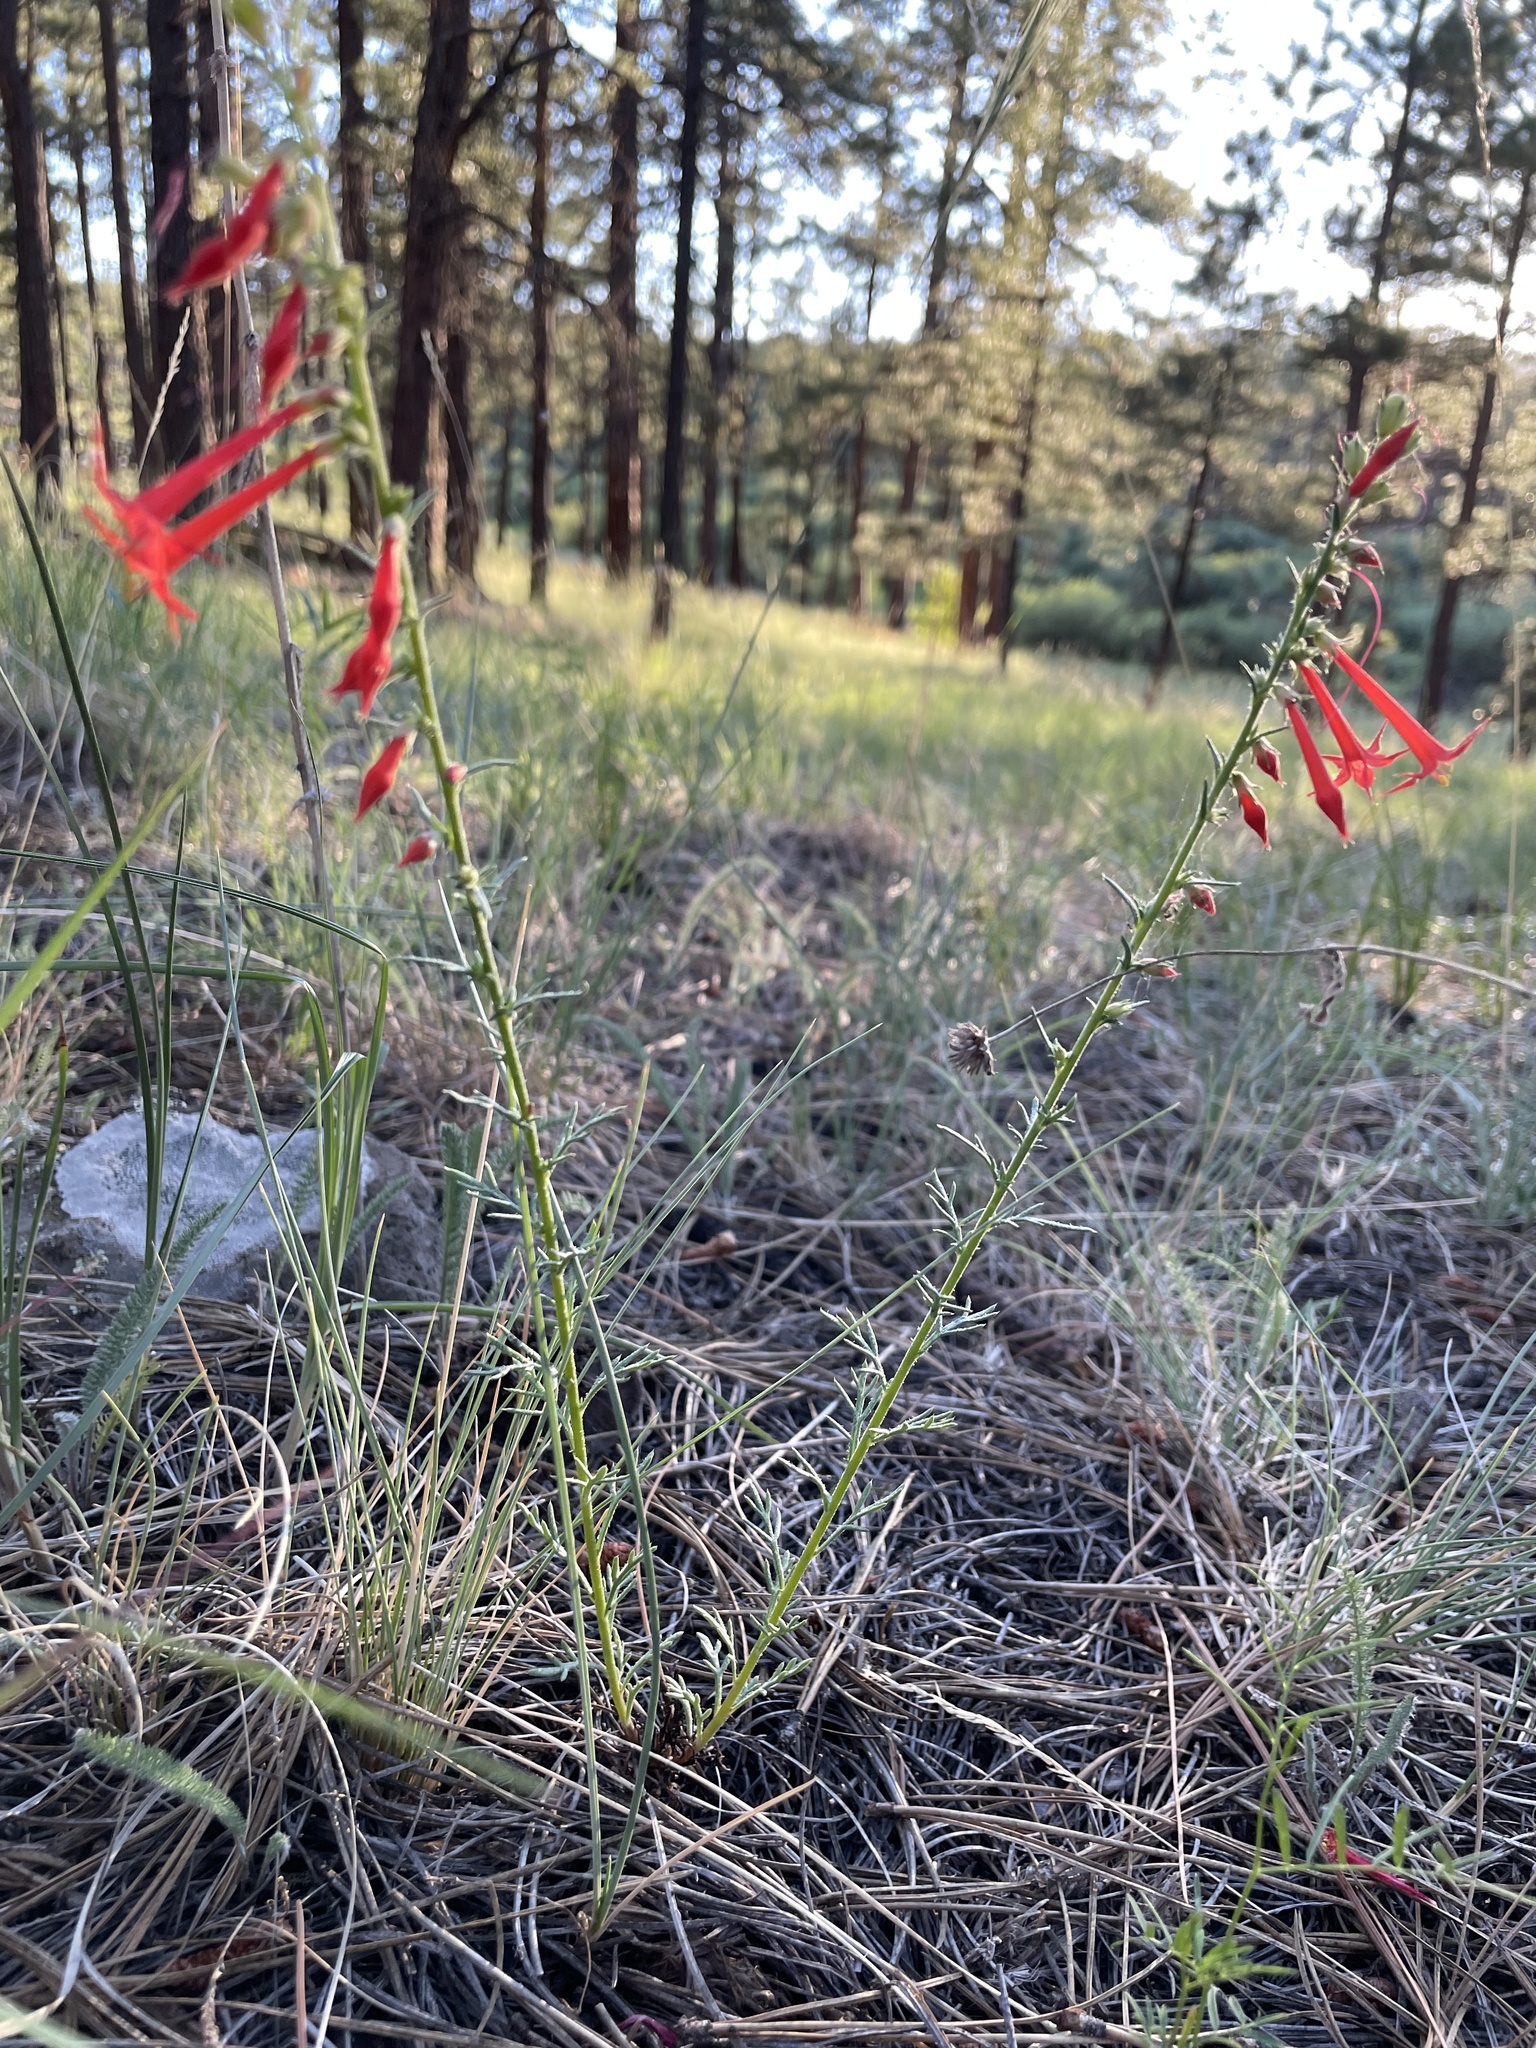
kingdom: Plantae
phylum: Tracheophyta
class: Magnoliopsida
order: Ericales
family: Polemoniaceae
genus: Ipomopsis
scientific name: Ipomopsis aggregata
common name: Scarlet gilia
